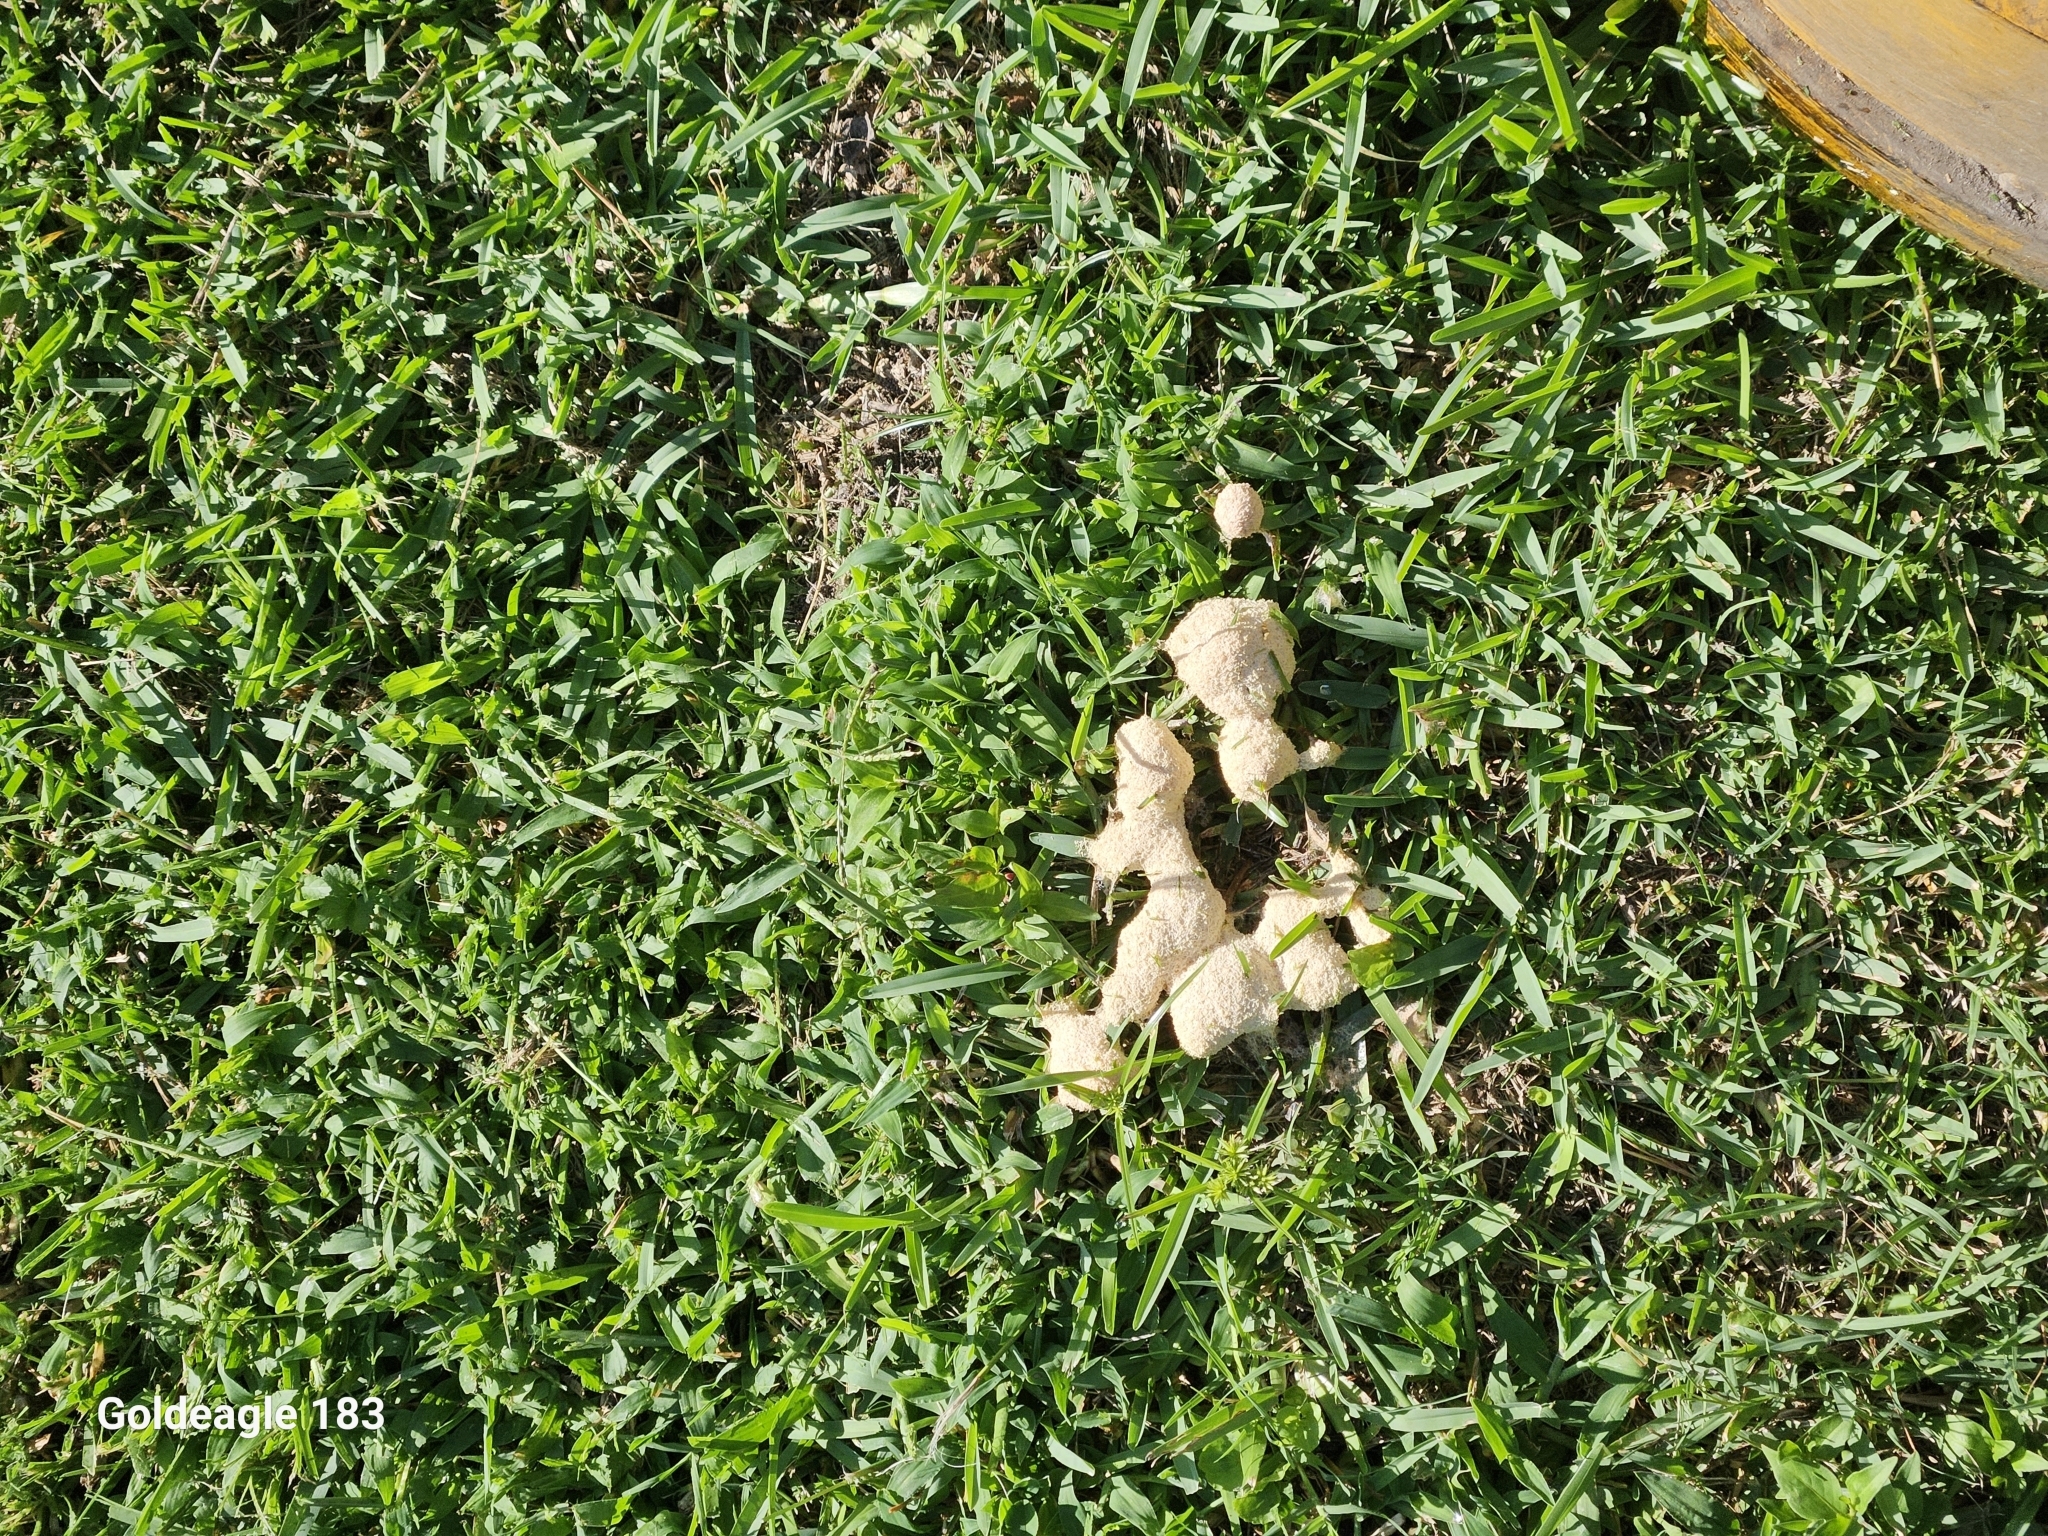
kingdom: Protozoa
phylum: Mycetozoa
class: Myxomycetes
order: Physarales
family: Physaraceae
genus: Fuligo
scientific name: Fuligo septica
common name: Dog vomit slime mold
